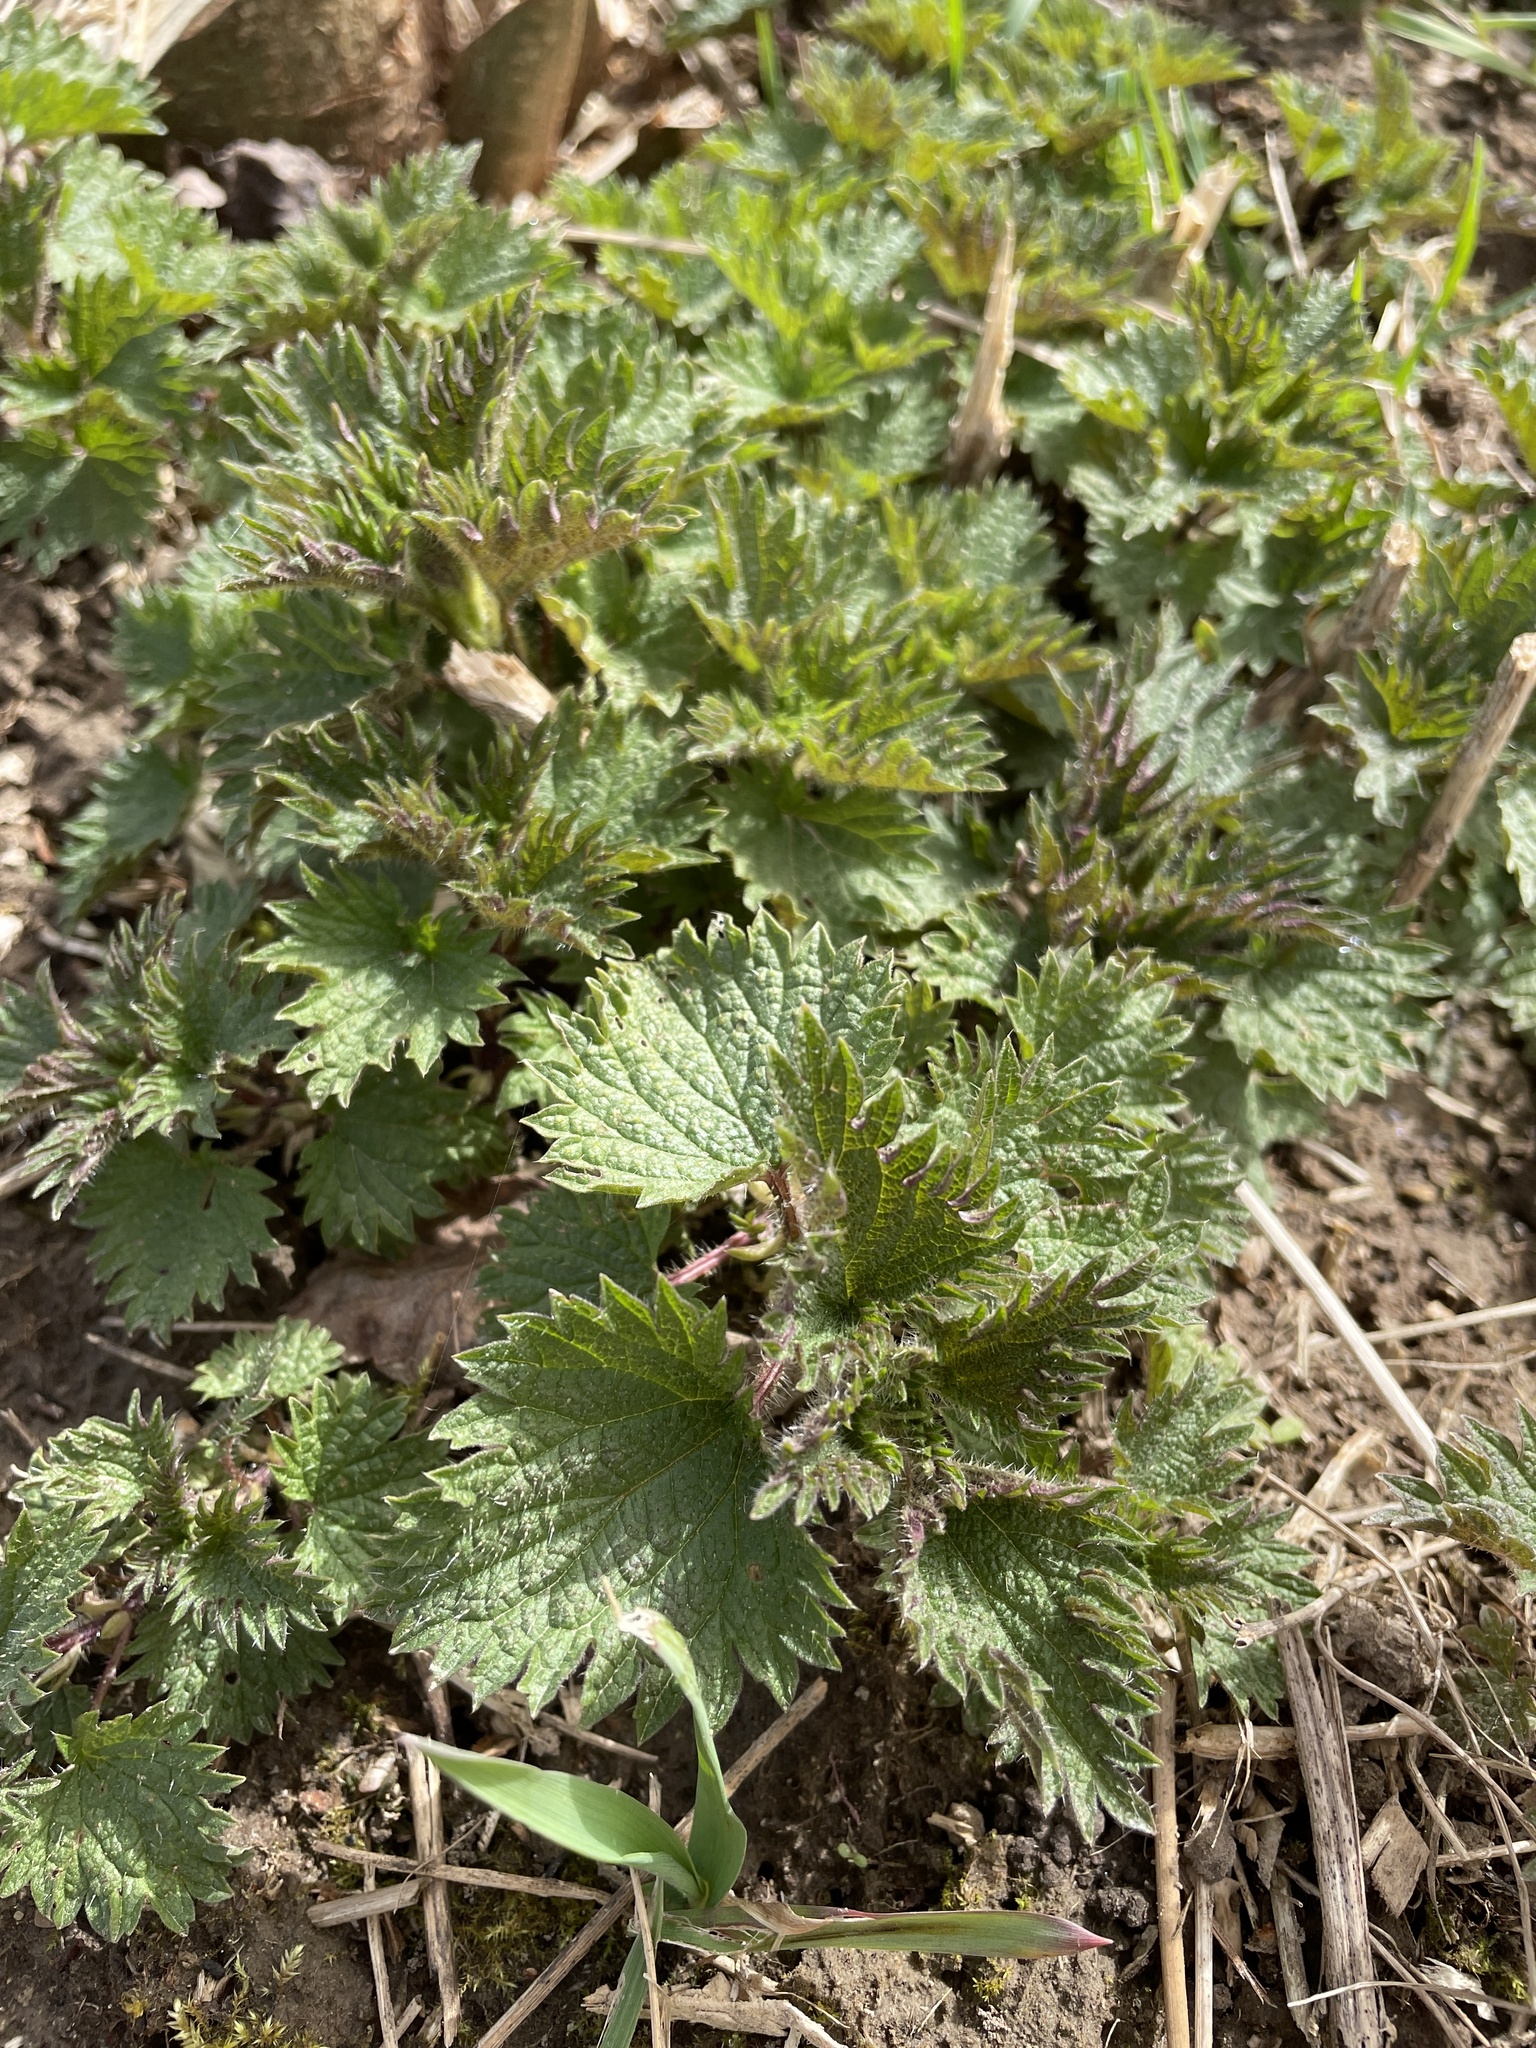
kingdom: Plantae
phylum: Tracheophyta
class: Magnoliopsida
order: Rosales
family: Urticaceae
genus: Urtica
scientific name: Urtica dioica
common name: Common nettle
